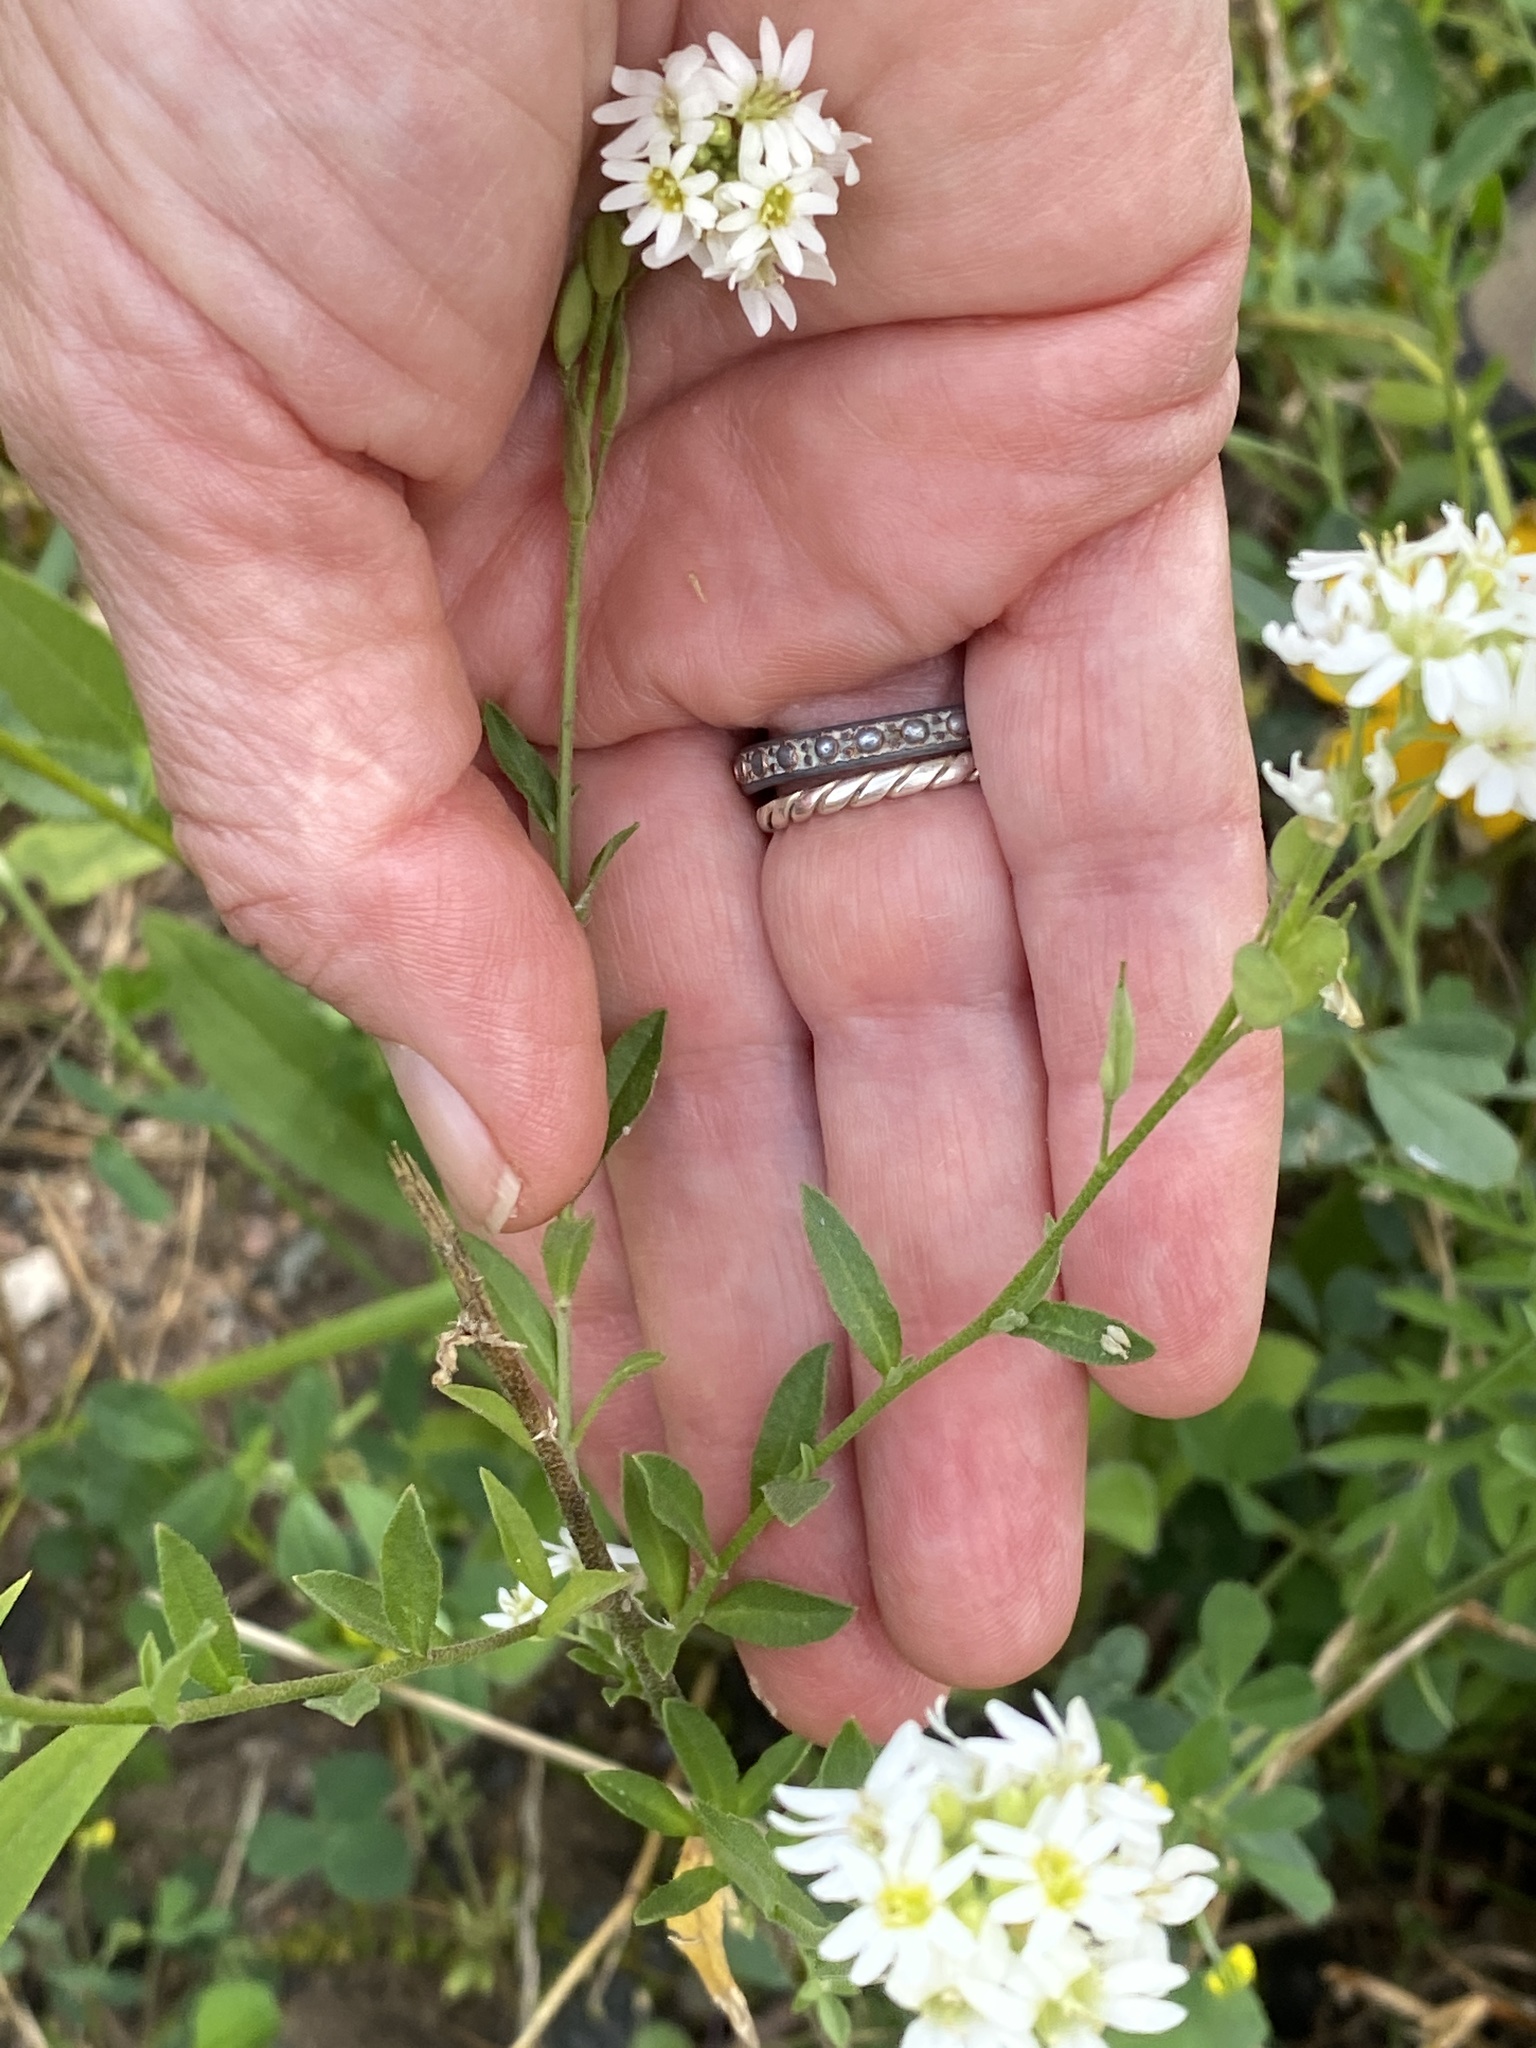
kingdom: Plantae
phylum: Tracheophyta
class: Magnoliopsida
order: Brassicales
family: Brassicaceae
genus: Berteroa
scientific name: Berteroa incana
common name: Hoary alison
